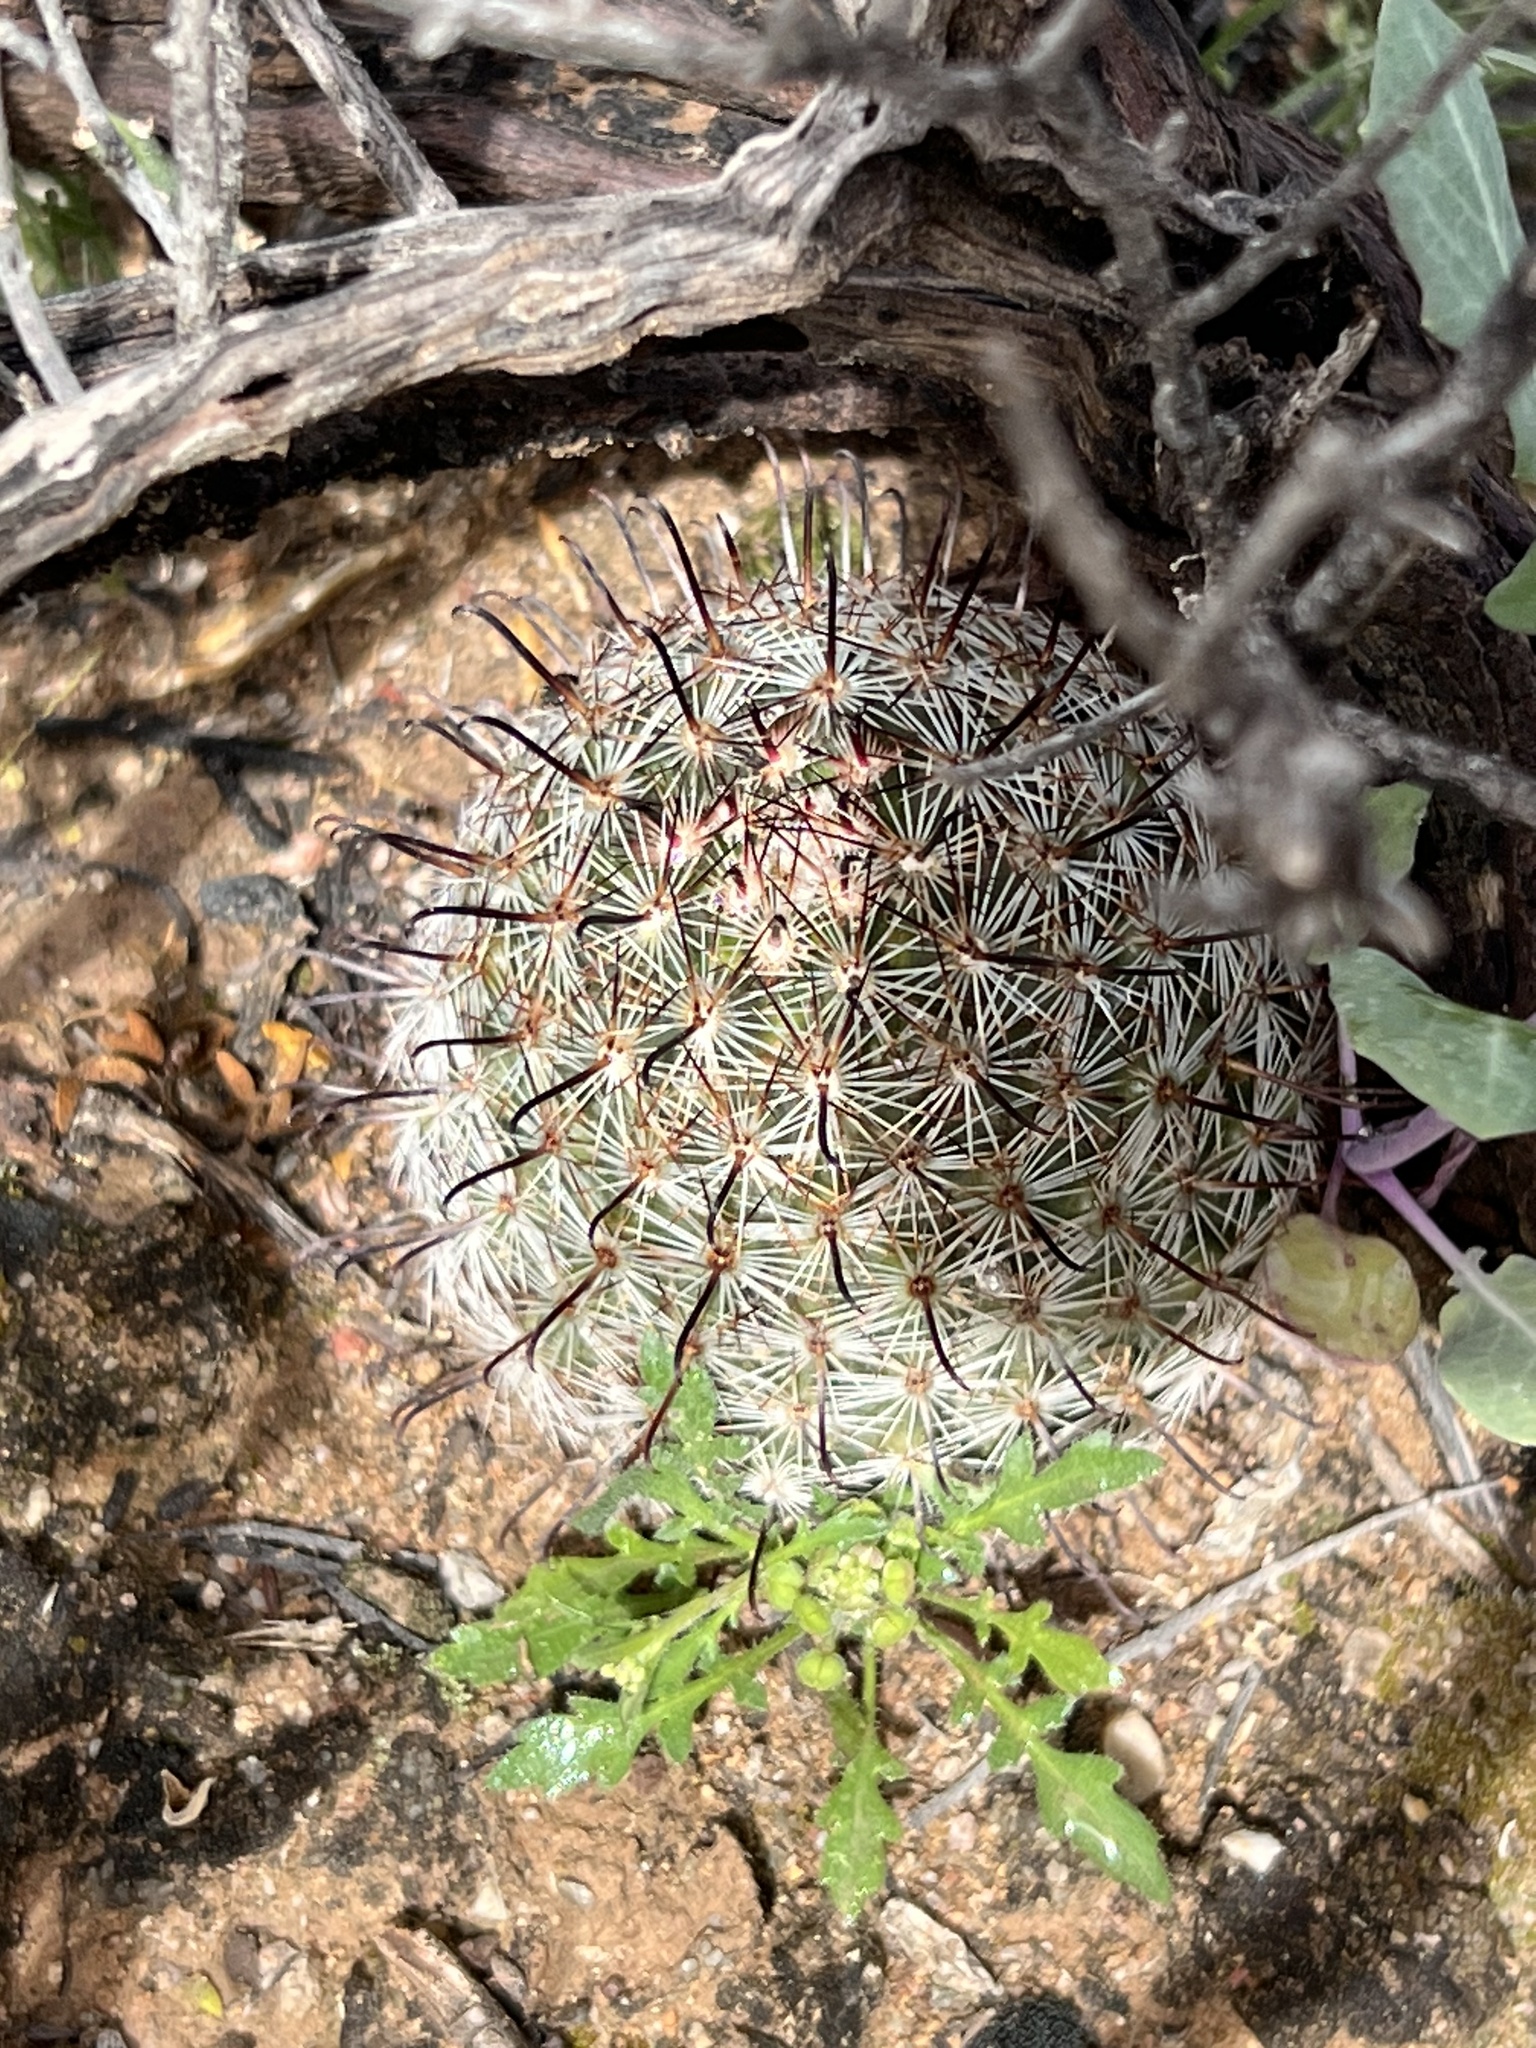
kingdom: Plantae
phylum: Tracheophyta
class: Magnoliopsida
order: Caryophyllales
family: Cactaceae
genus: Cochemiea
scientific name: Cochemiea grahamii
